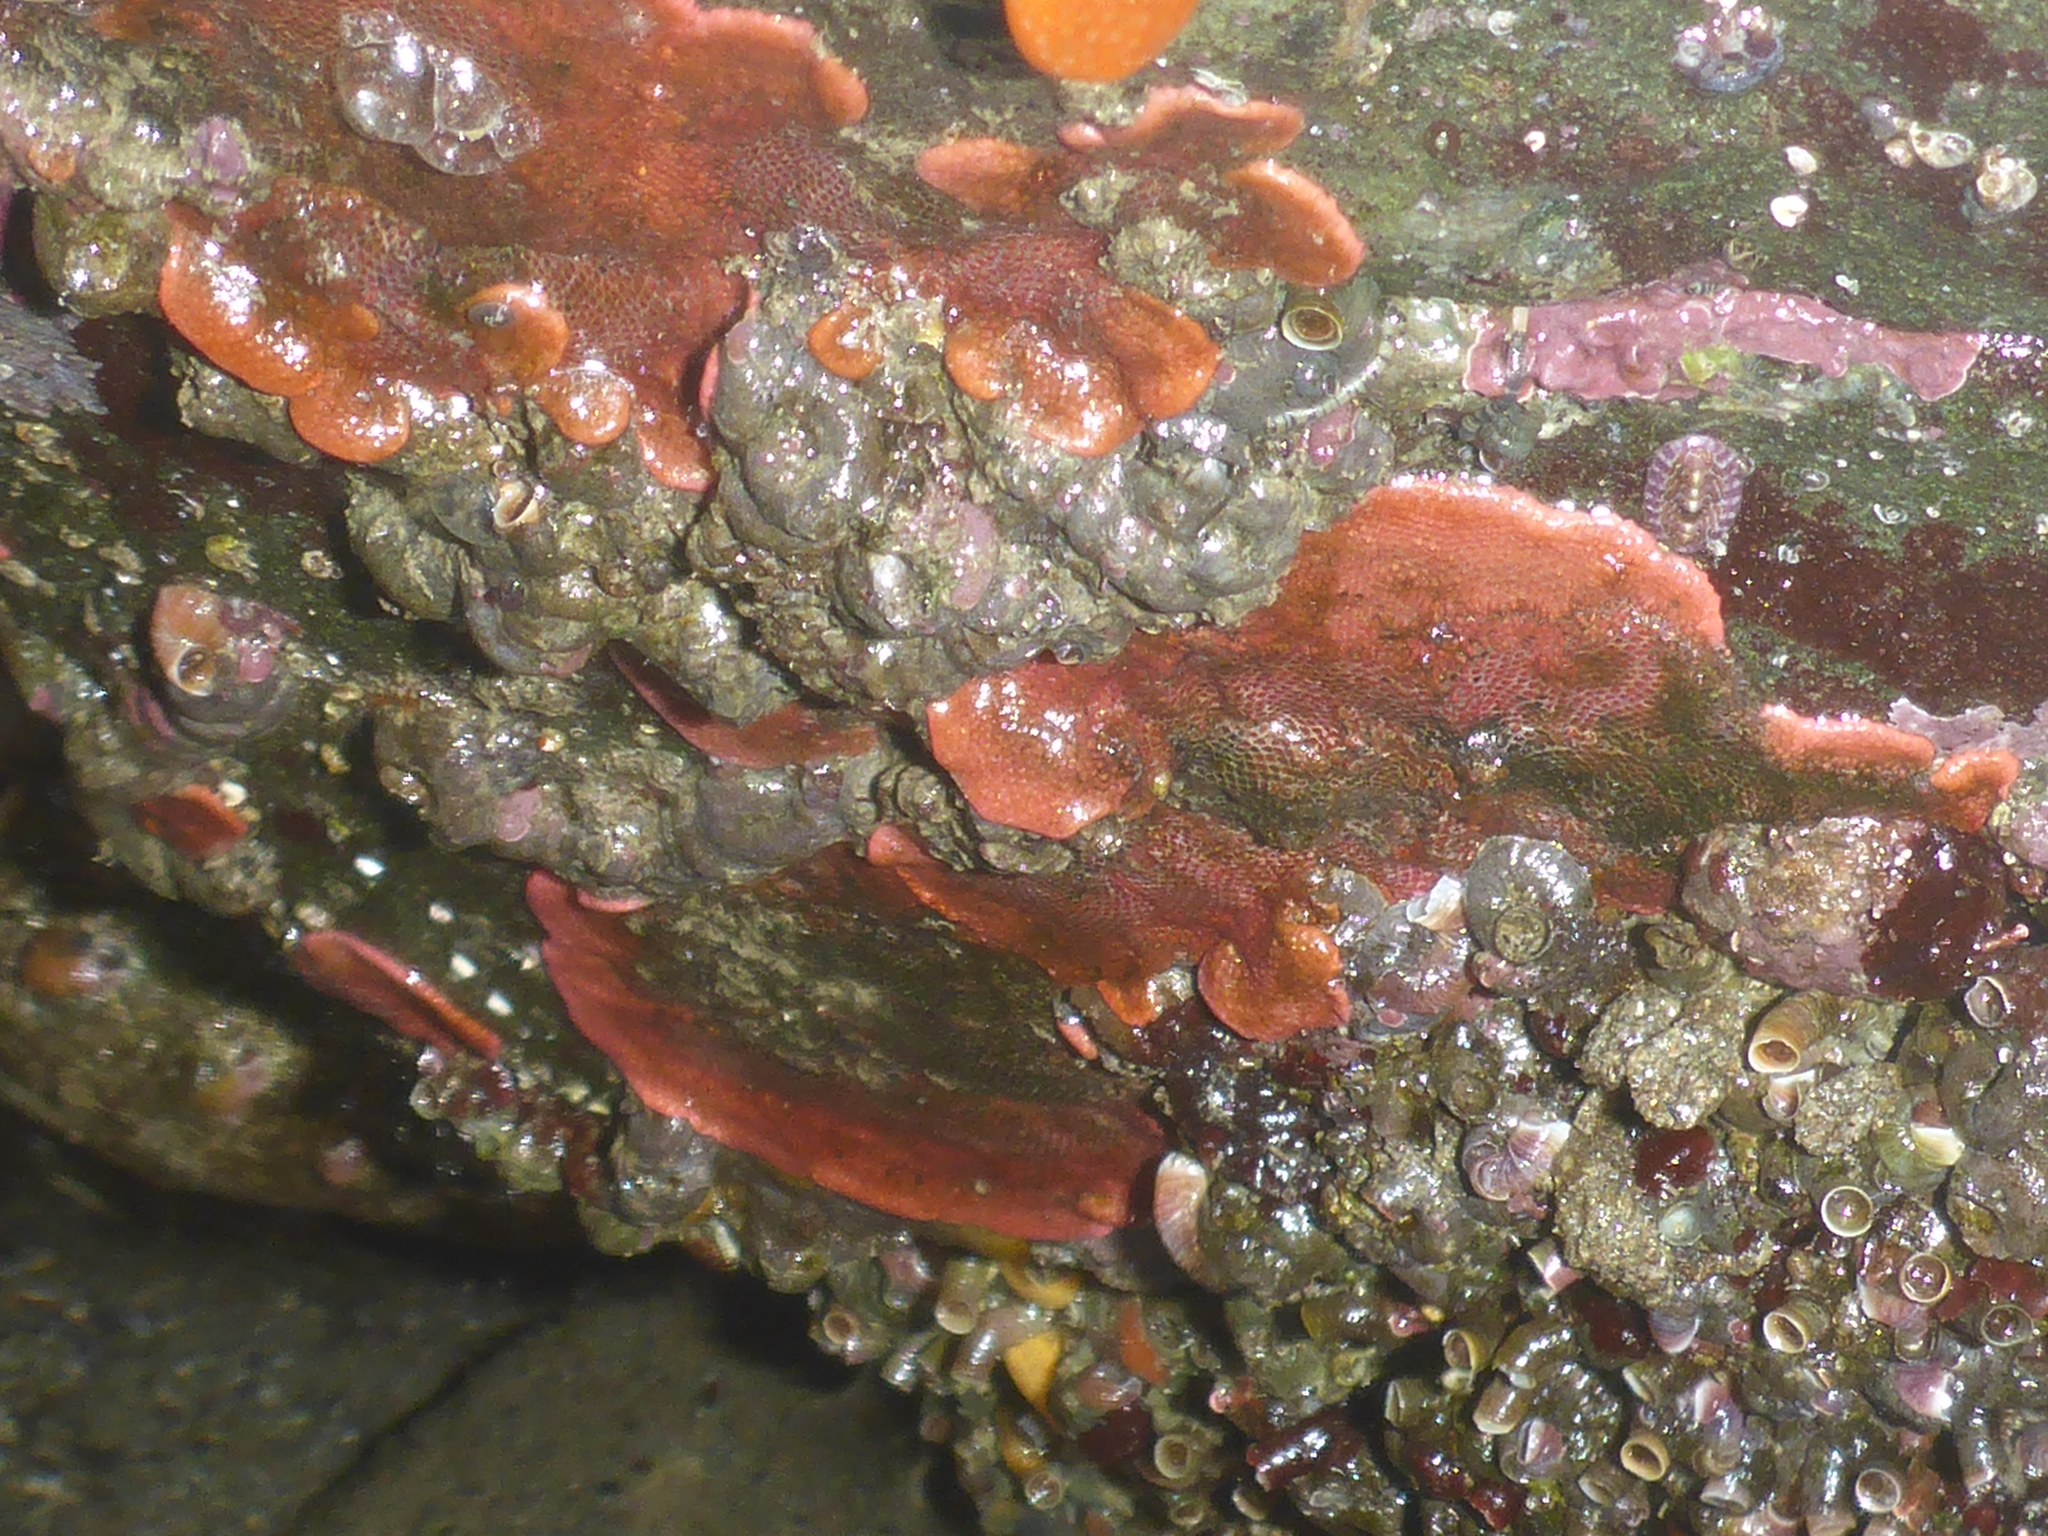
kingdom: Animalia
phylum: Bryozoa
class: Gymnolaemata
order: Cheilostomatida
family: Eurystomellidae
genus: Integripelta
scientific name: Integripelta bilabiata
